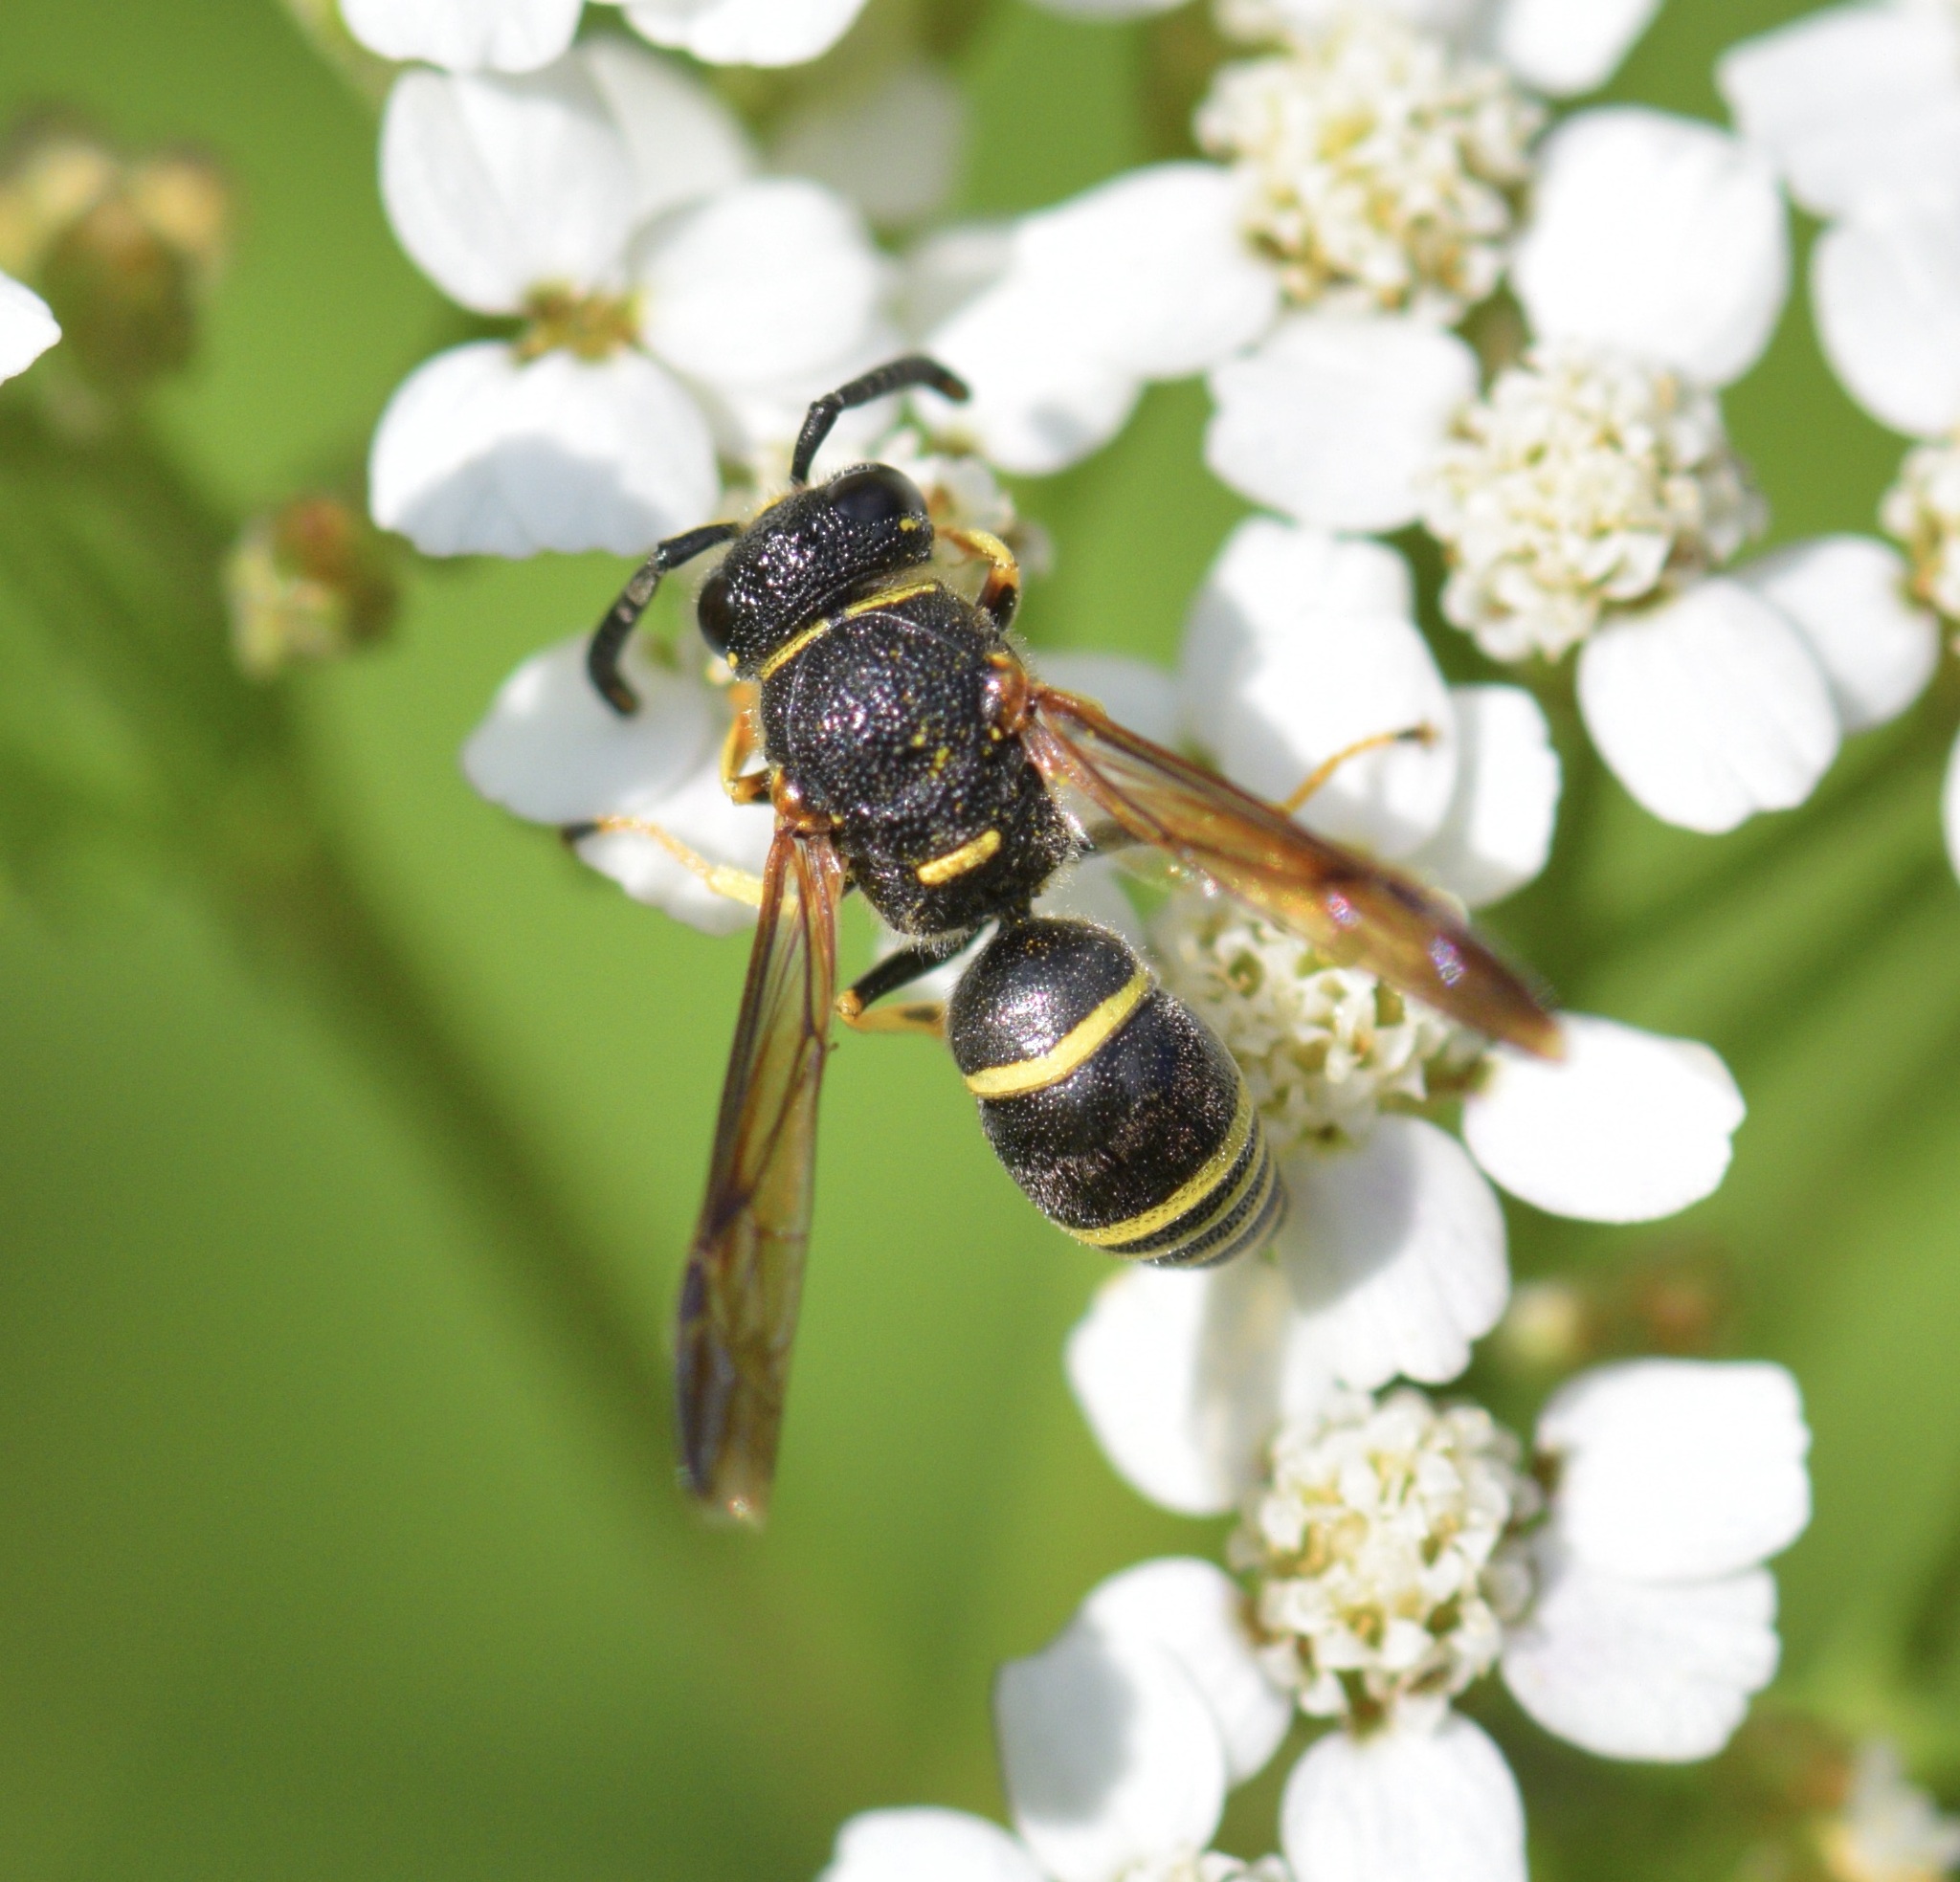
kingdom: Animalia
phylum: Arthropoda
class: Insecta
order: Hymenoptera
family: Eumenidae
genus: Euodynerus
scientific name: Euodynerus
